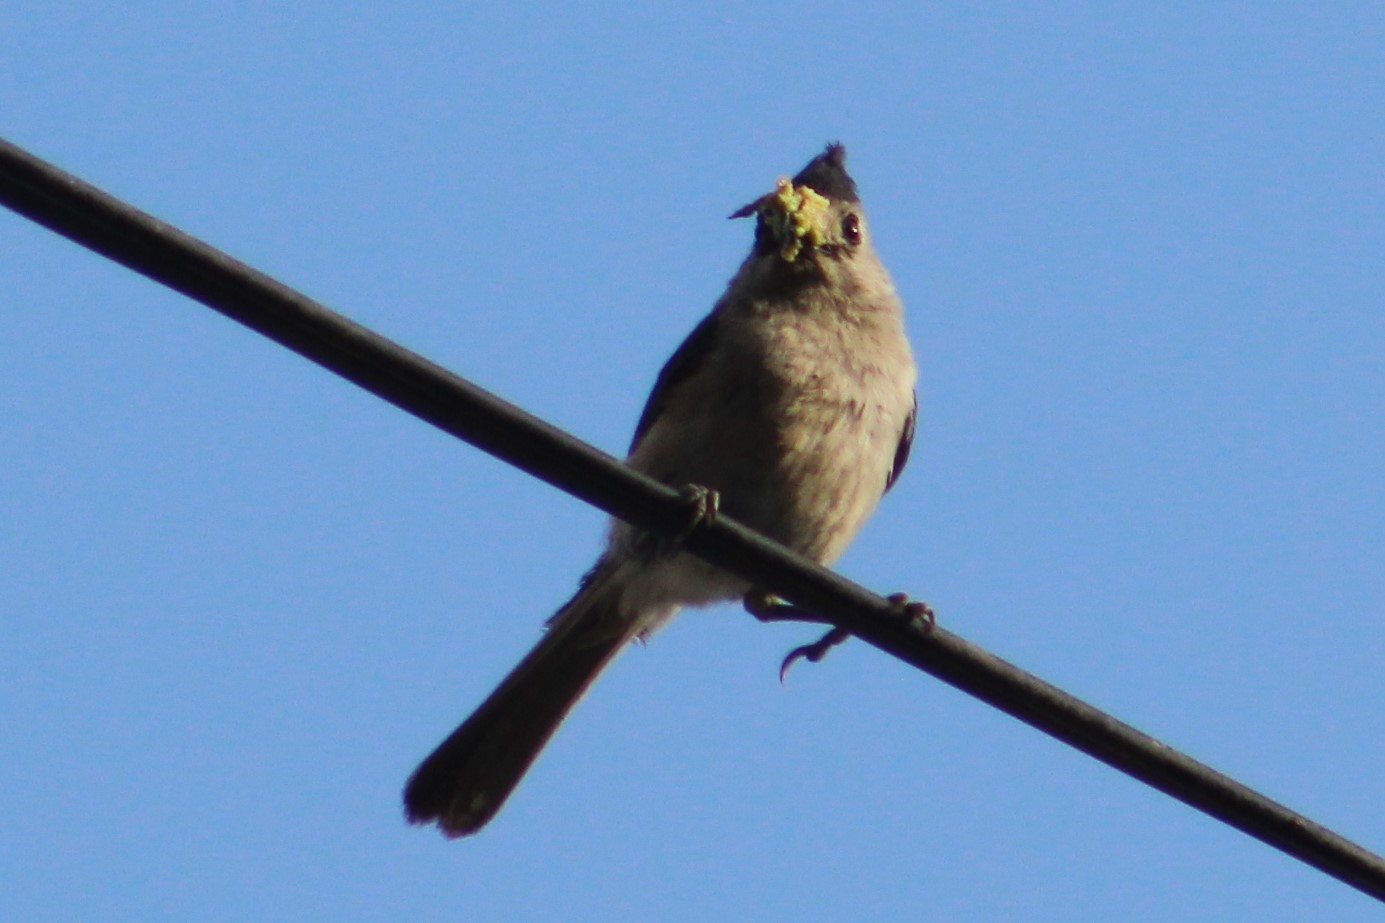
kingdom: Animalia
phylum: Chordata
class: Aves
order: Passeriformes
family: Paridae
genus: Baeolophus
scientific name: Baeolophus atricristatus
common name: Black-crested titmouse
